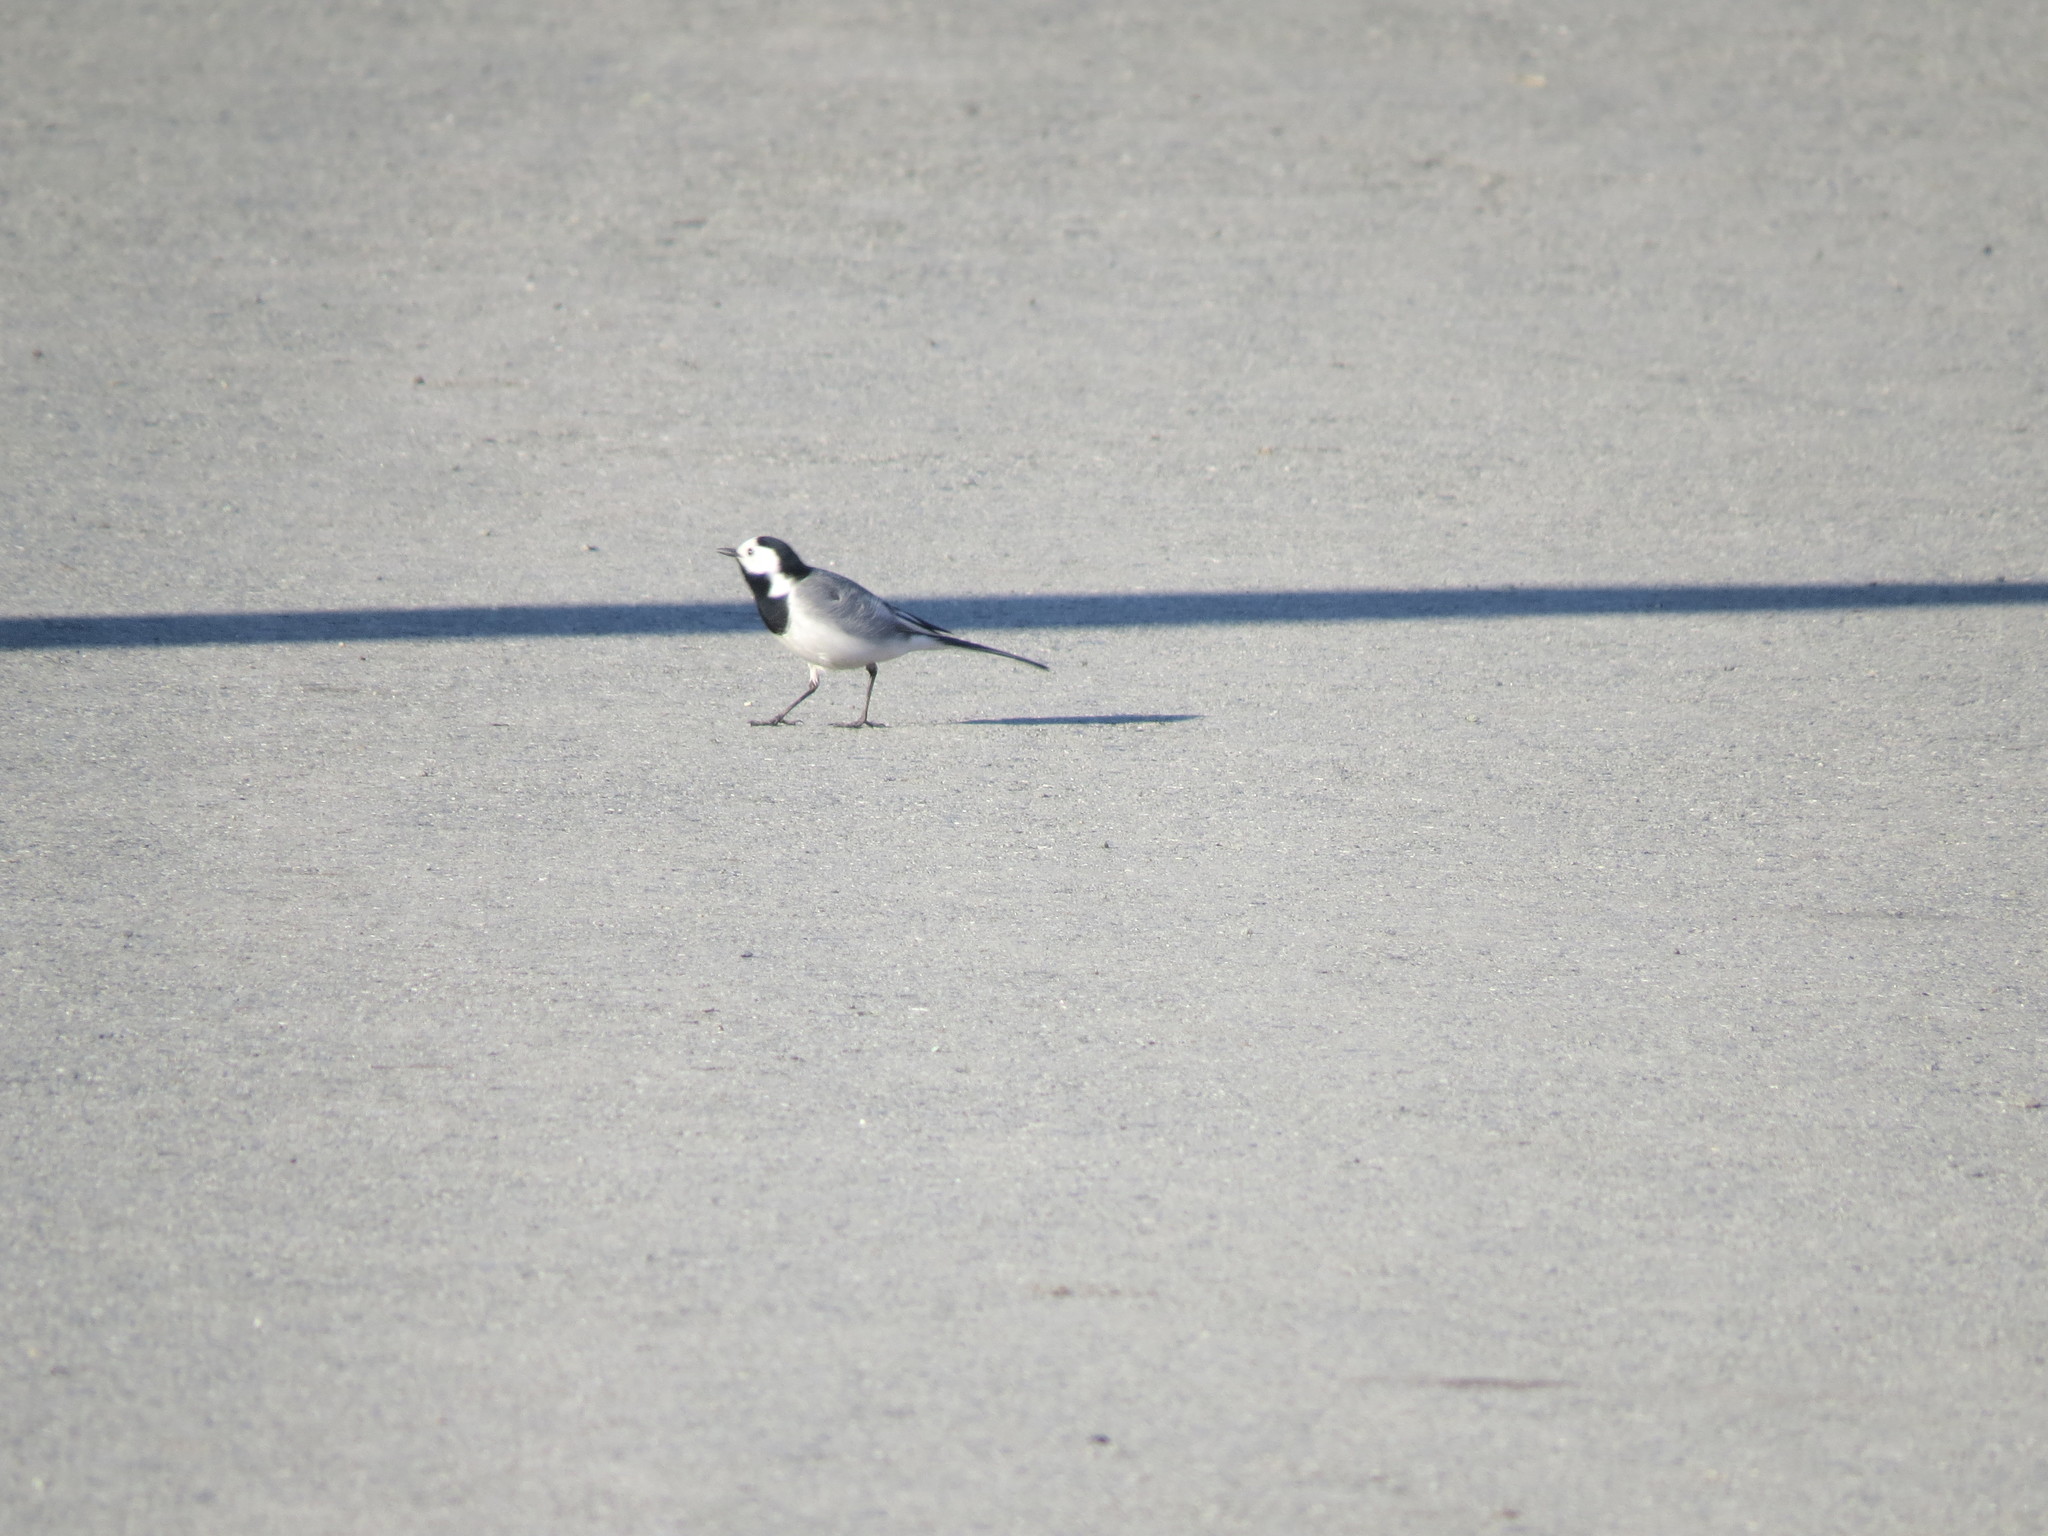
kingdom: Animalia
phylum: Chordata
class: Aves
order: Passeriformes
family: Motacillidae
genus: Motacilla
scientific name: Motacilla alba
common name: White wagtail
